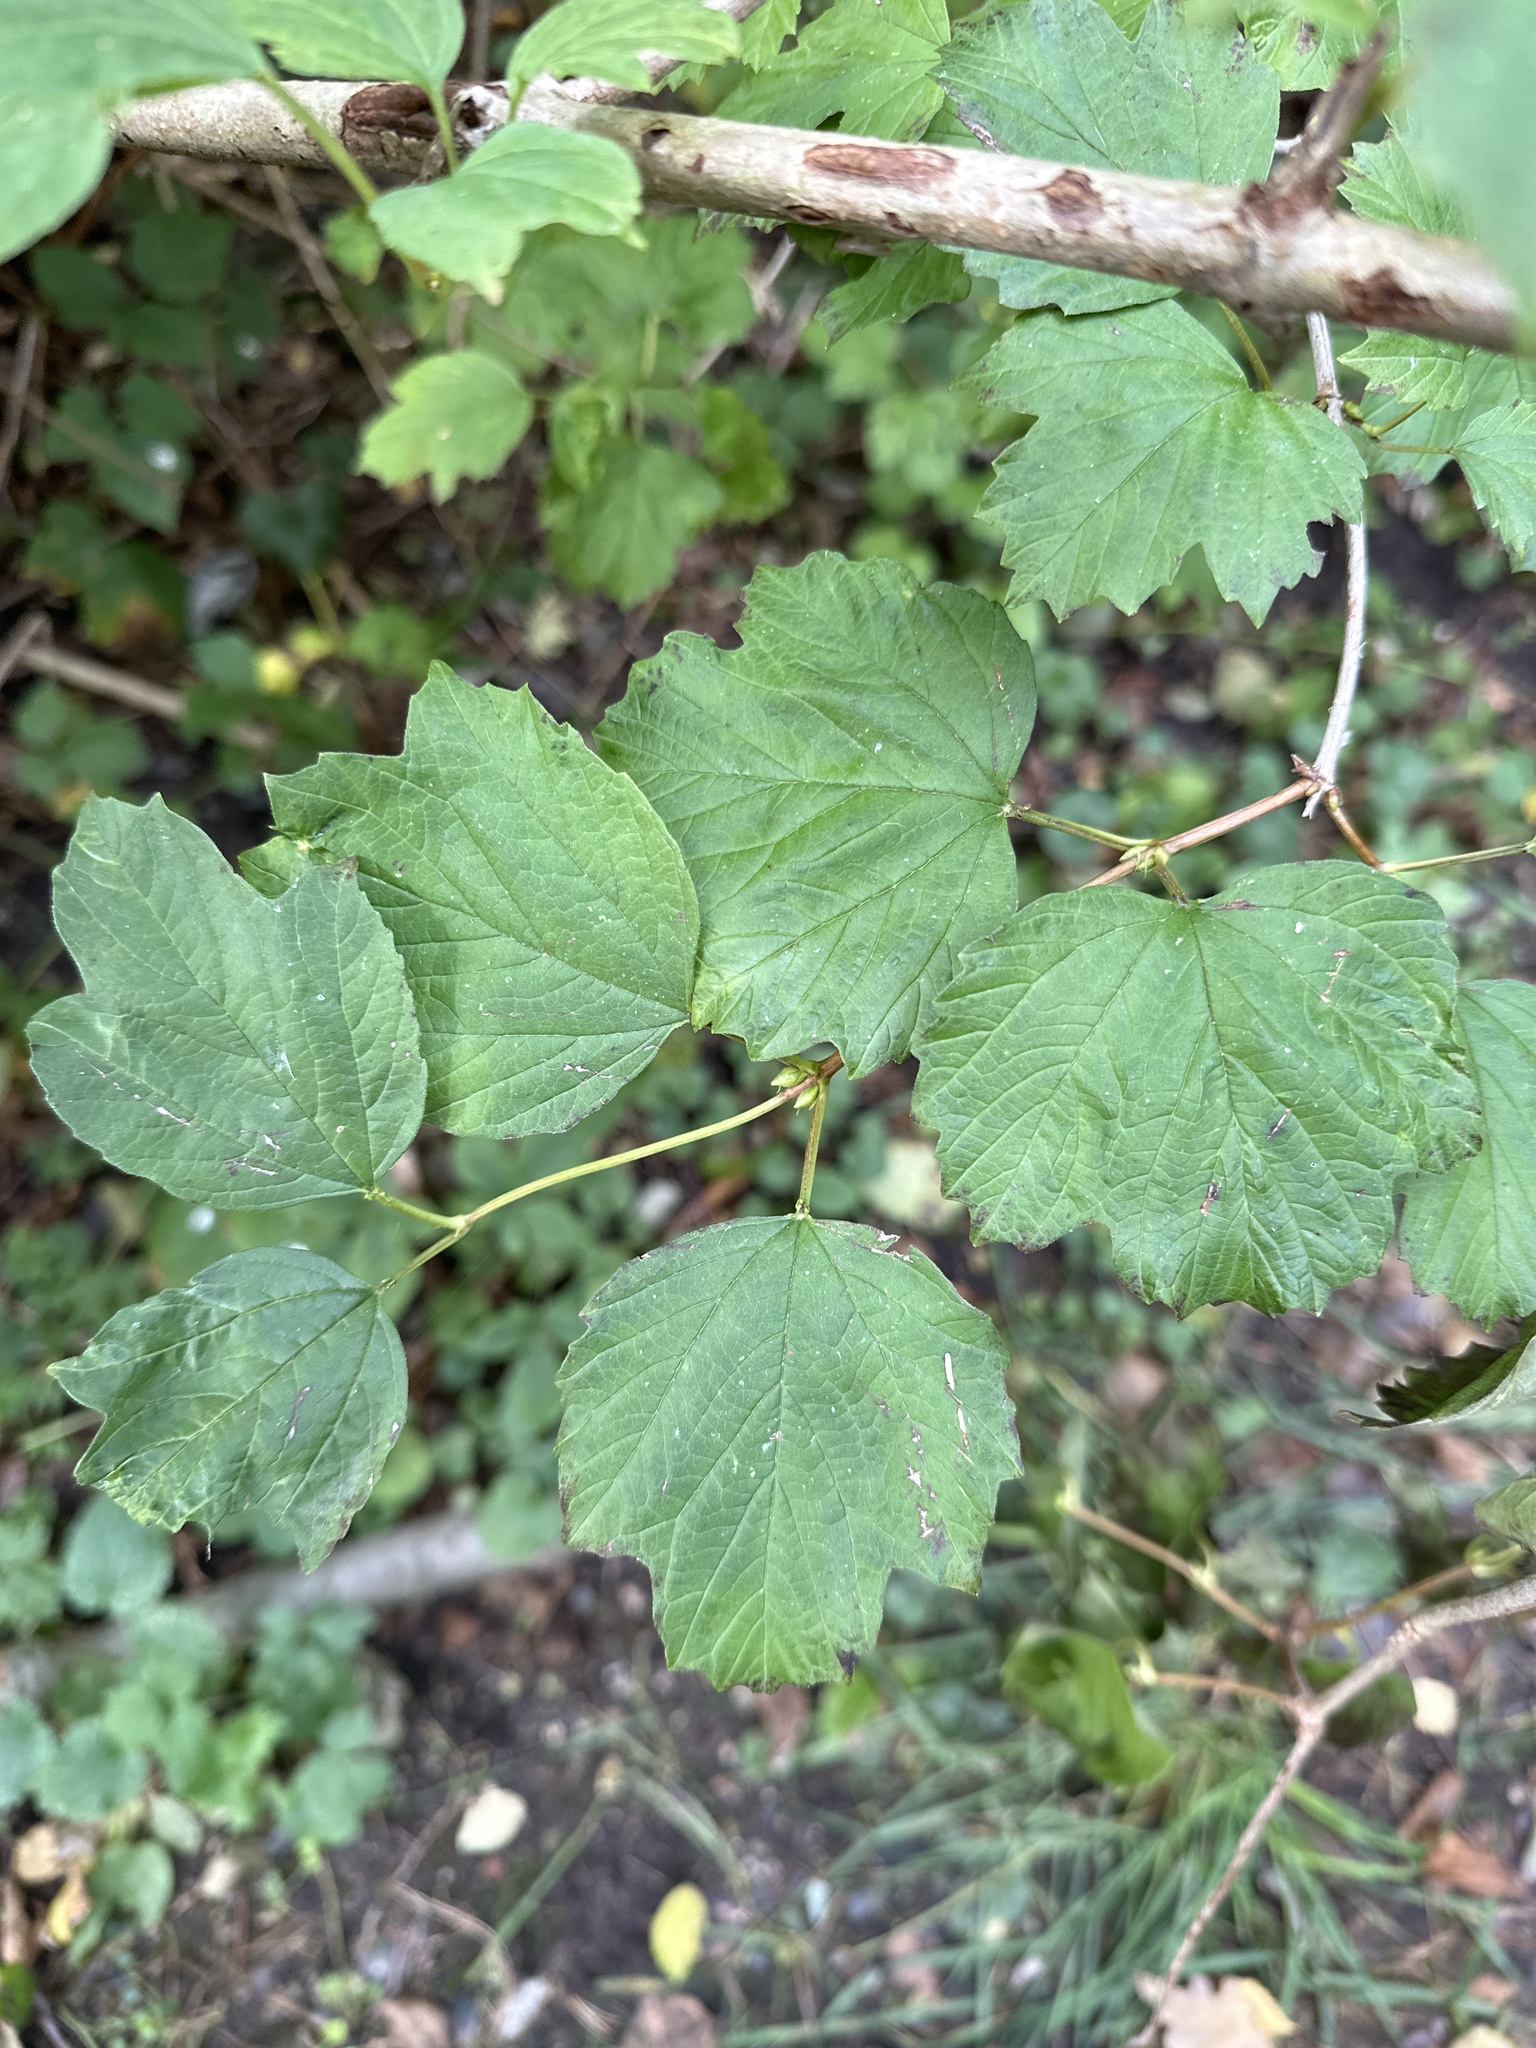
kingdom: Plantae
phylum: Tracheophyta
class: Magnoliopsida
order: Dipsacales
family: Viburnaceae
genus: Viburnum
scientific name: Viburnum opulus
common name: Guelder-rose
